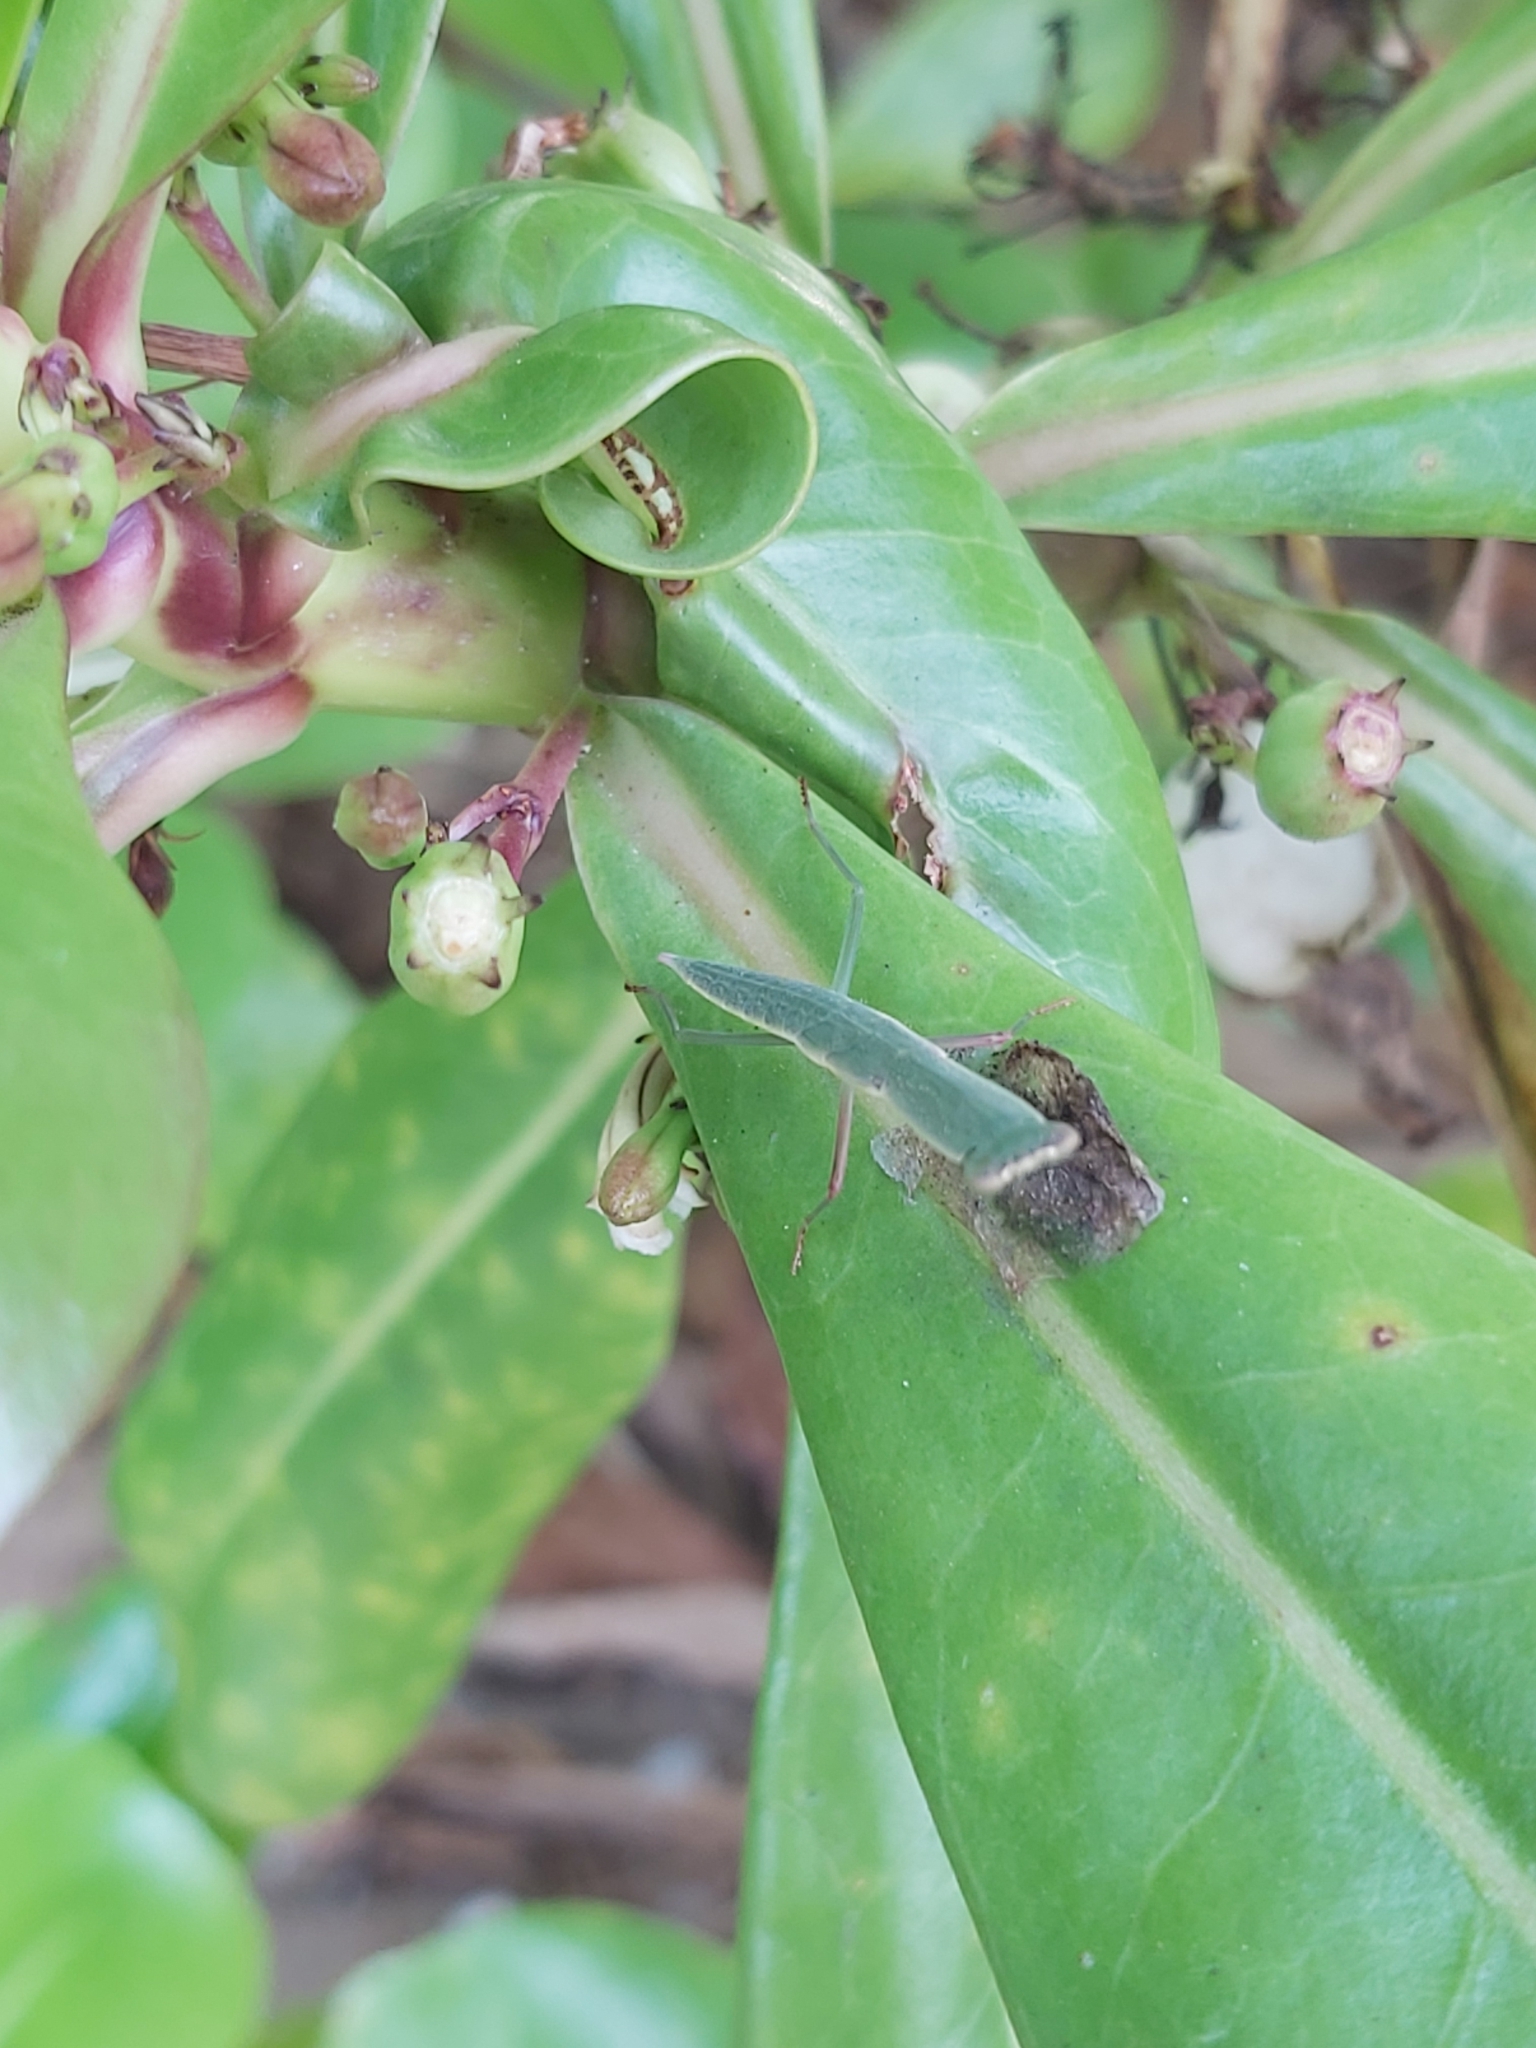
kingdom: Animalia
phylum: Arthropoda
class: Insecta
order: Mantodea
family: Mantidae
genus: Orthodera
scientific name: Orthodera ministralis
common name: Mantis
